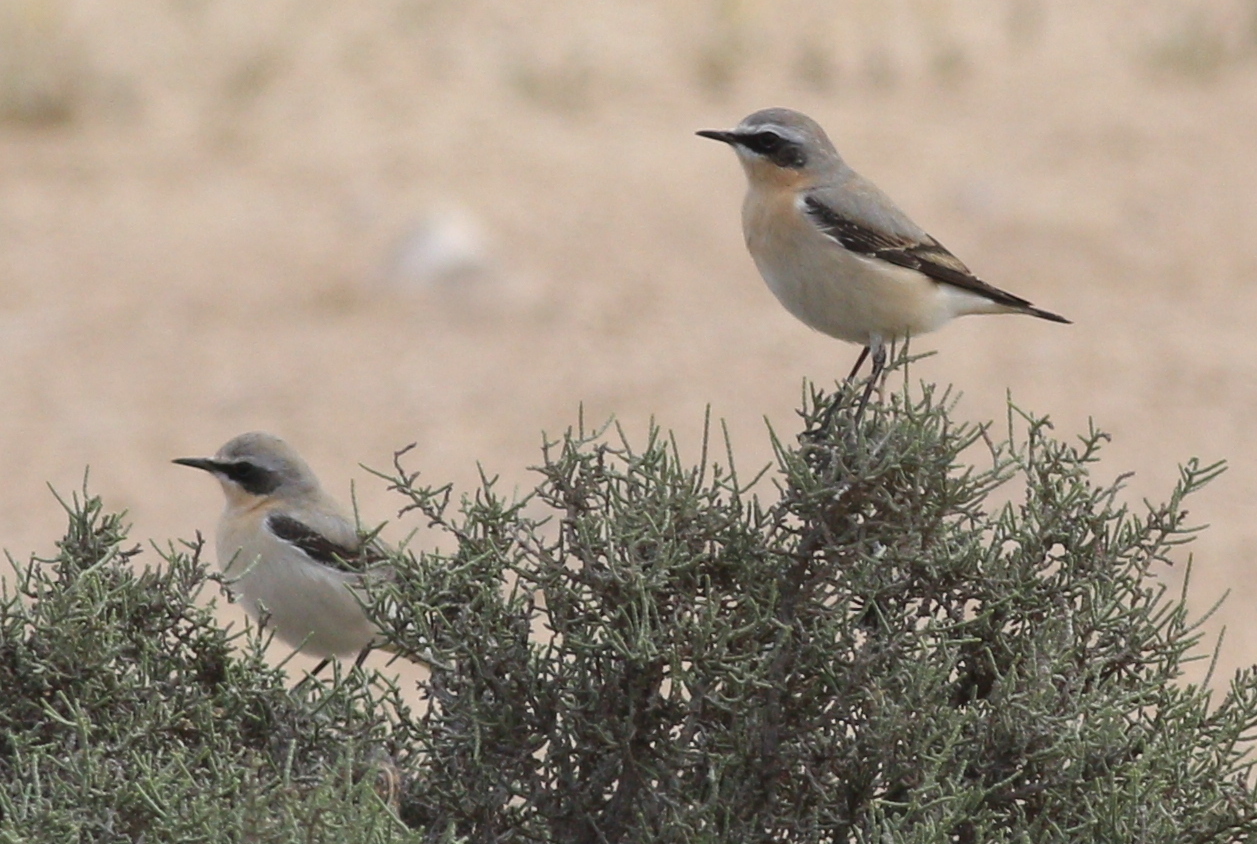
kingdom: Animalia
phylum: Chordata
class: Aves
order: Passeriformes
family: Muscicapidae
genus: Oenanthe
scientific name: Oenanthe oenanthe
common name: Northern wheatear
